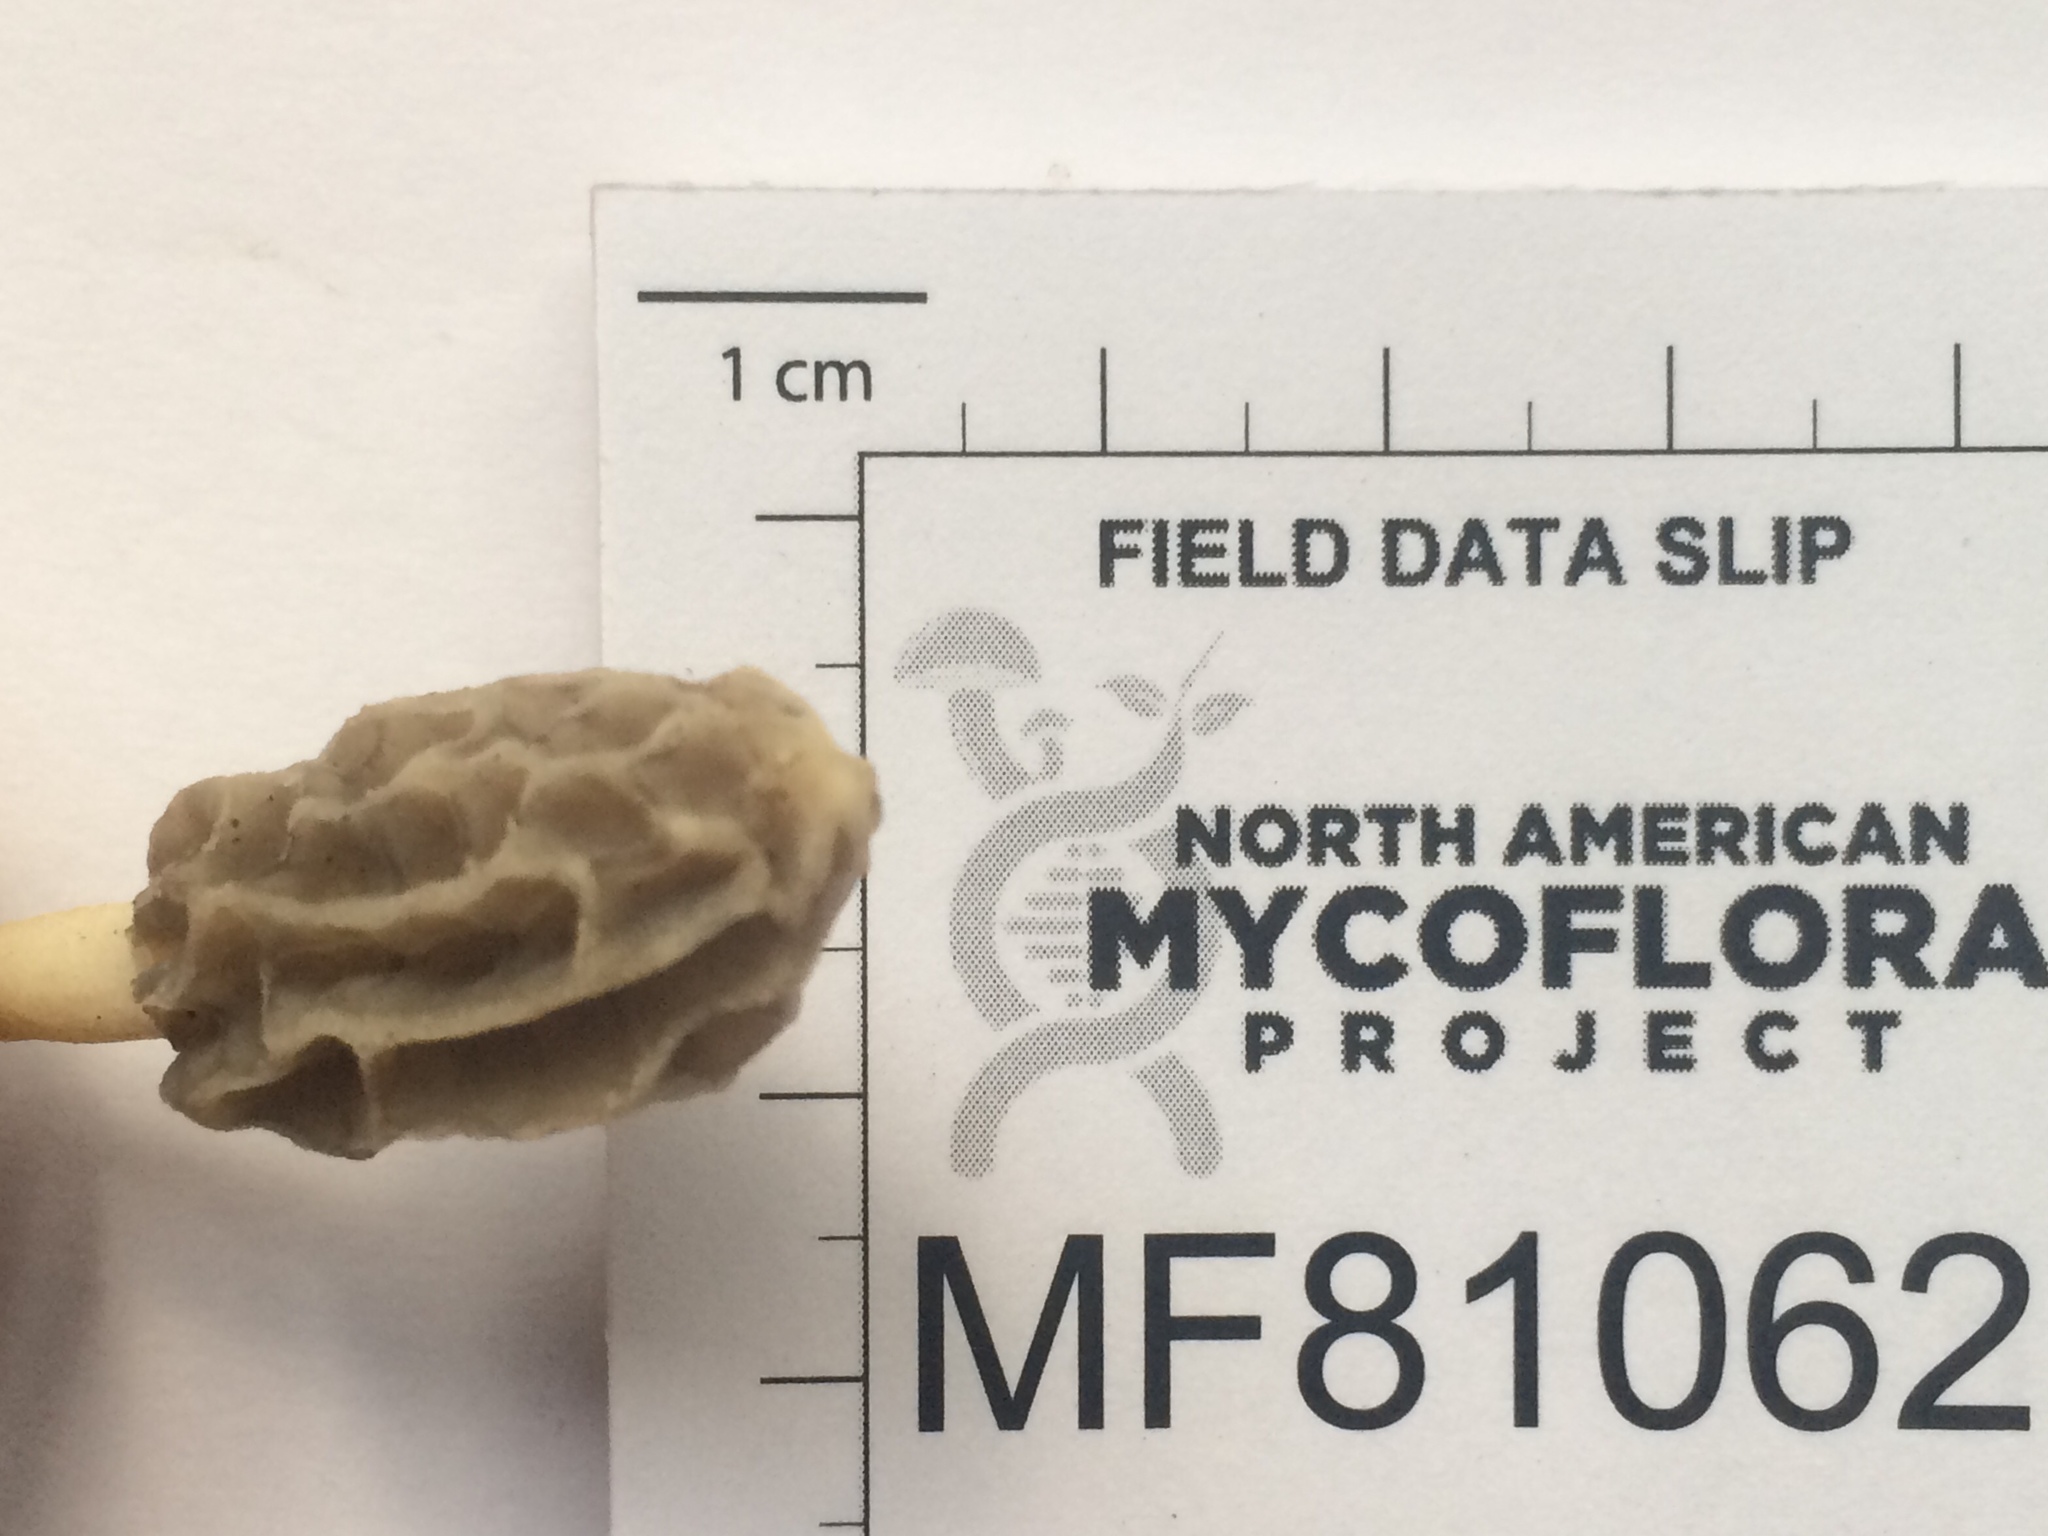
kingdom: Fungi
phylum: Ascomycota
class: Pezizomycetes
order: Pezizales
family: Morchellaceae
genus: Morchella
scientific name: Morchella diminutiva
